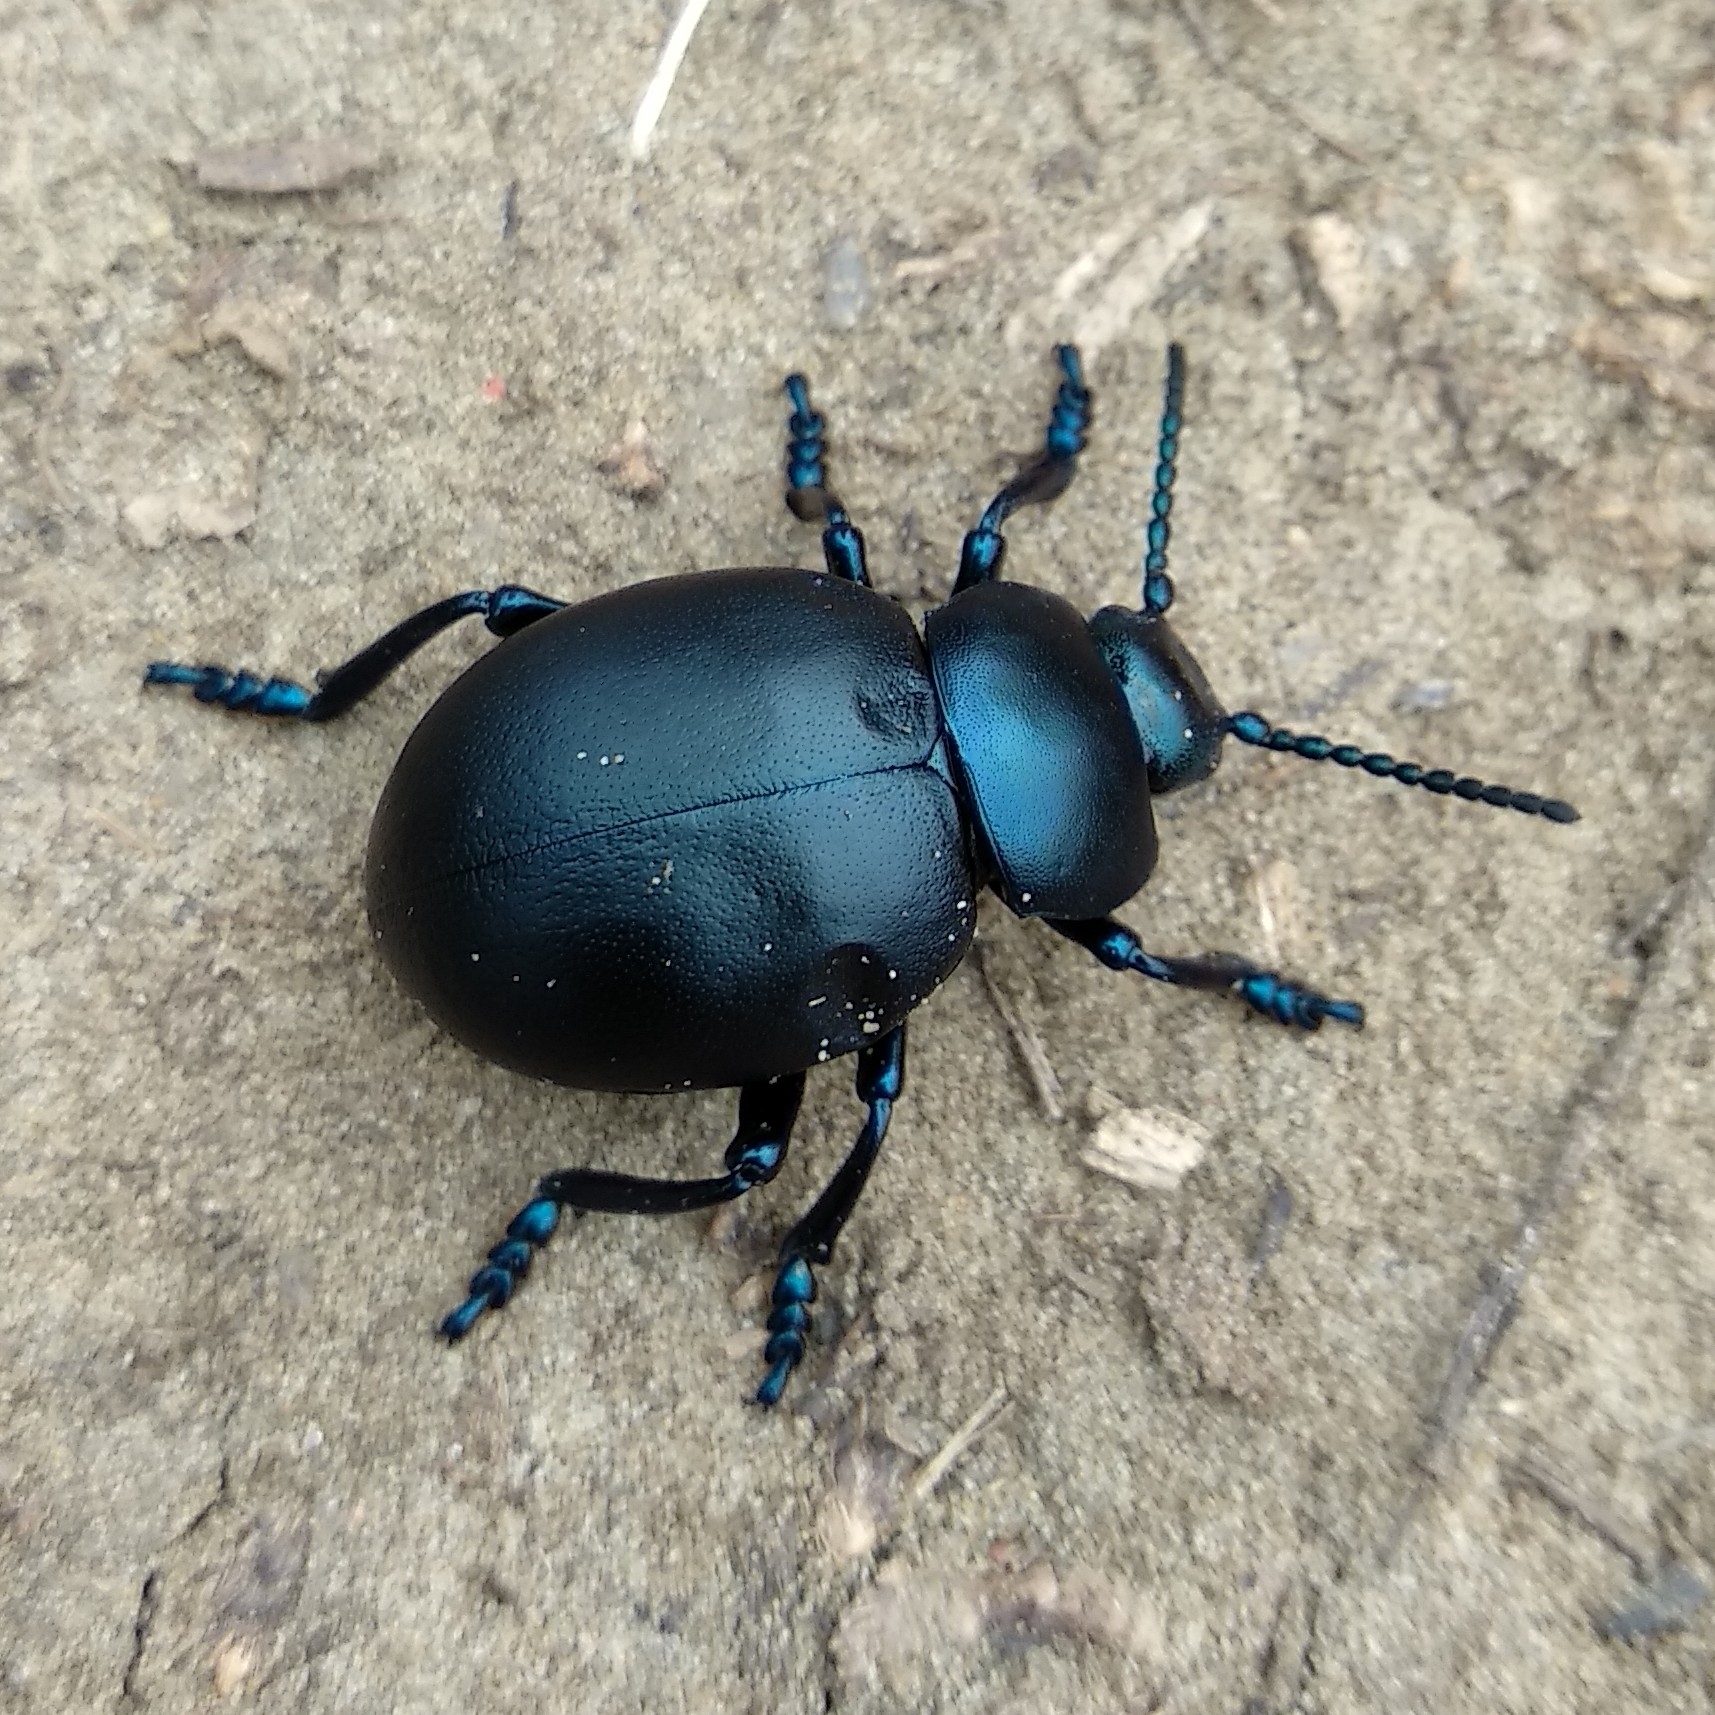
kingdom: Animalia
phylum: Arthropoda
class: Insecta
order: Coleoptera
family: Chrysomelidae
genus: Timarcha
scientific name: Timarcha tenebricosa
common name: Bloody-nosed beetle
